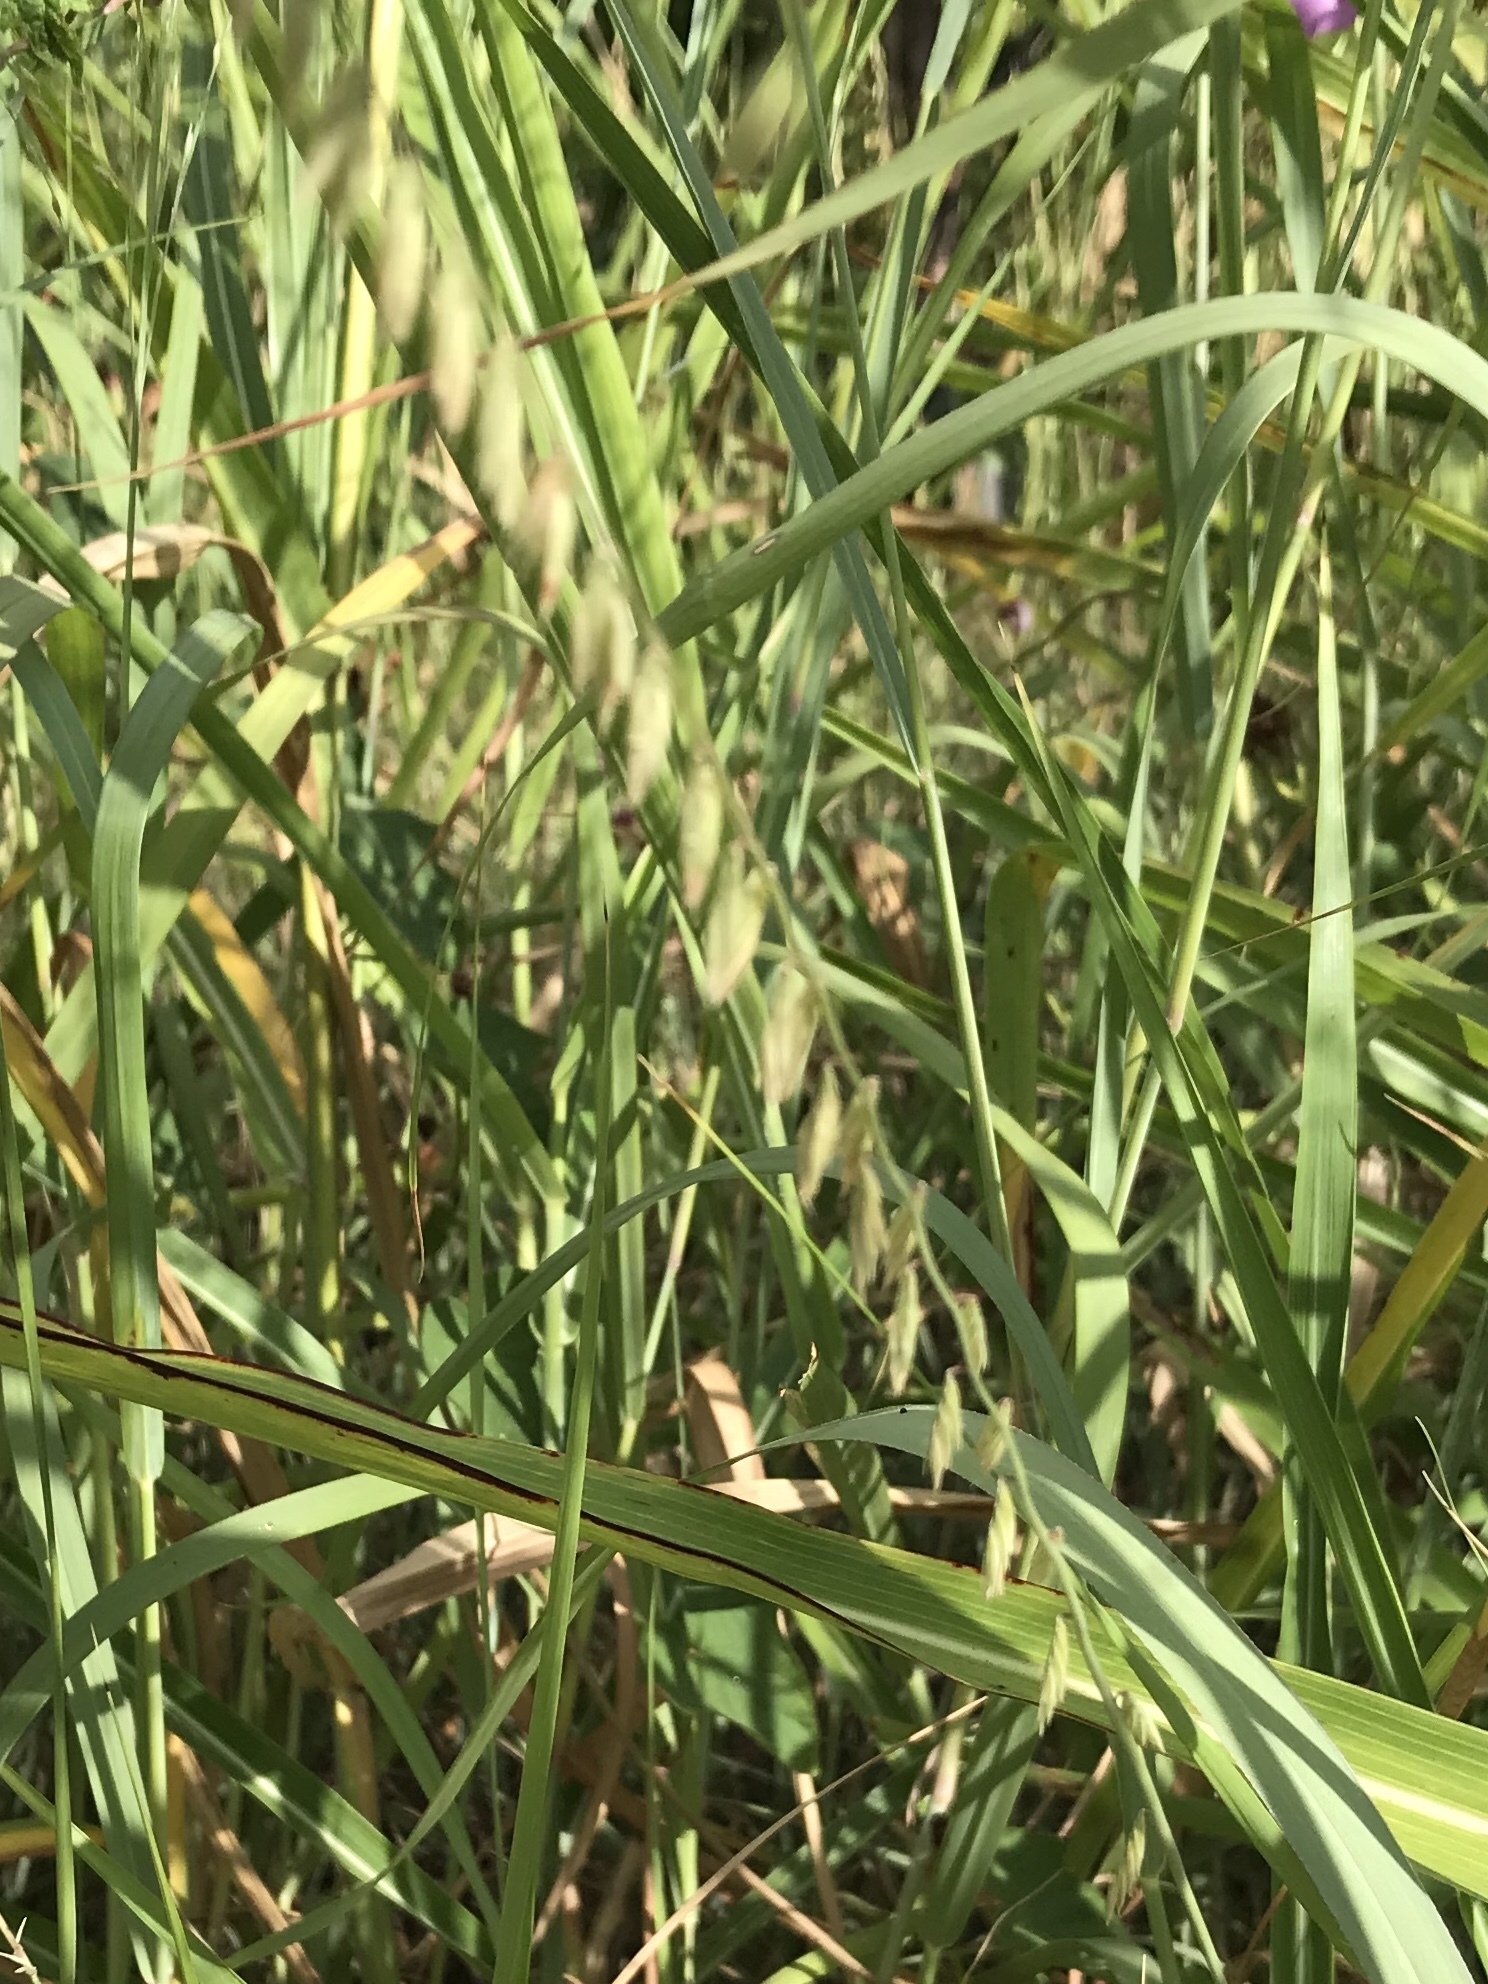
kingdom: Plantae
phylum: Tracheophyta
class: Liliopsida
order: Poales
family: Poaceae
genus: Bouteloua
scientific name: Bouteloua curtipendula
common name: Side-oats grama
